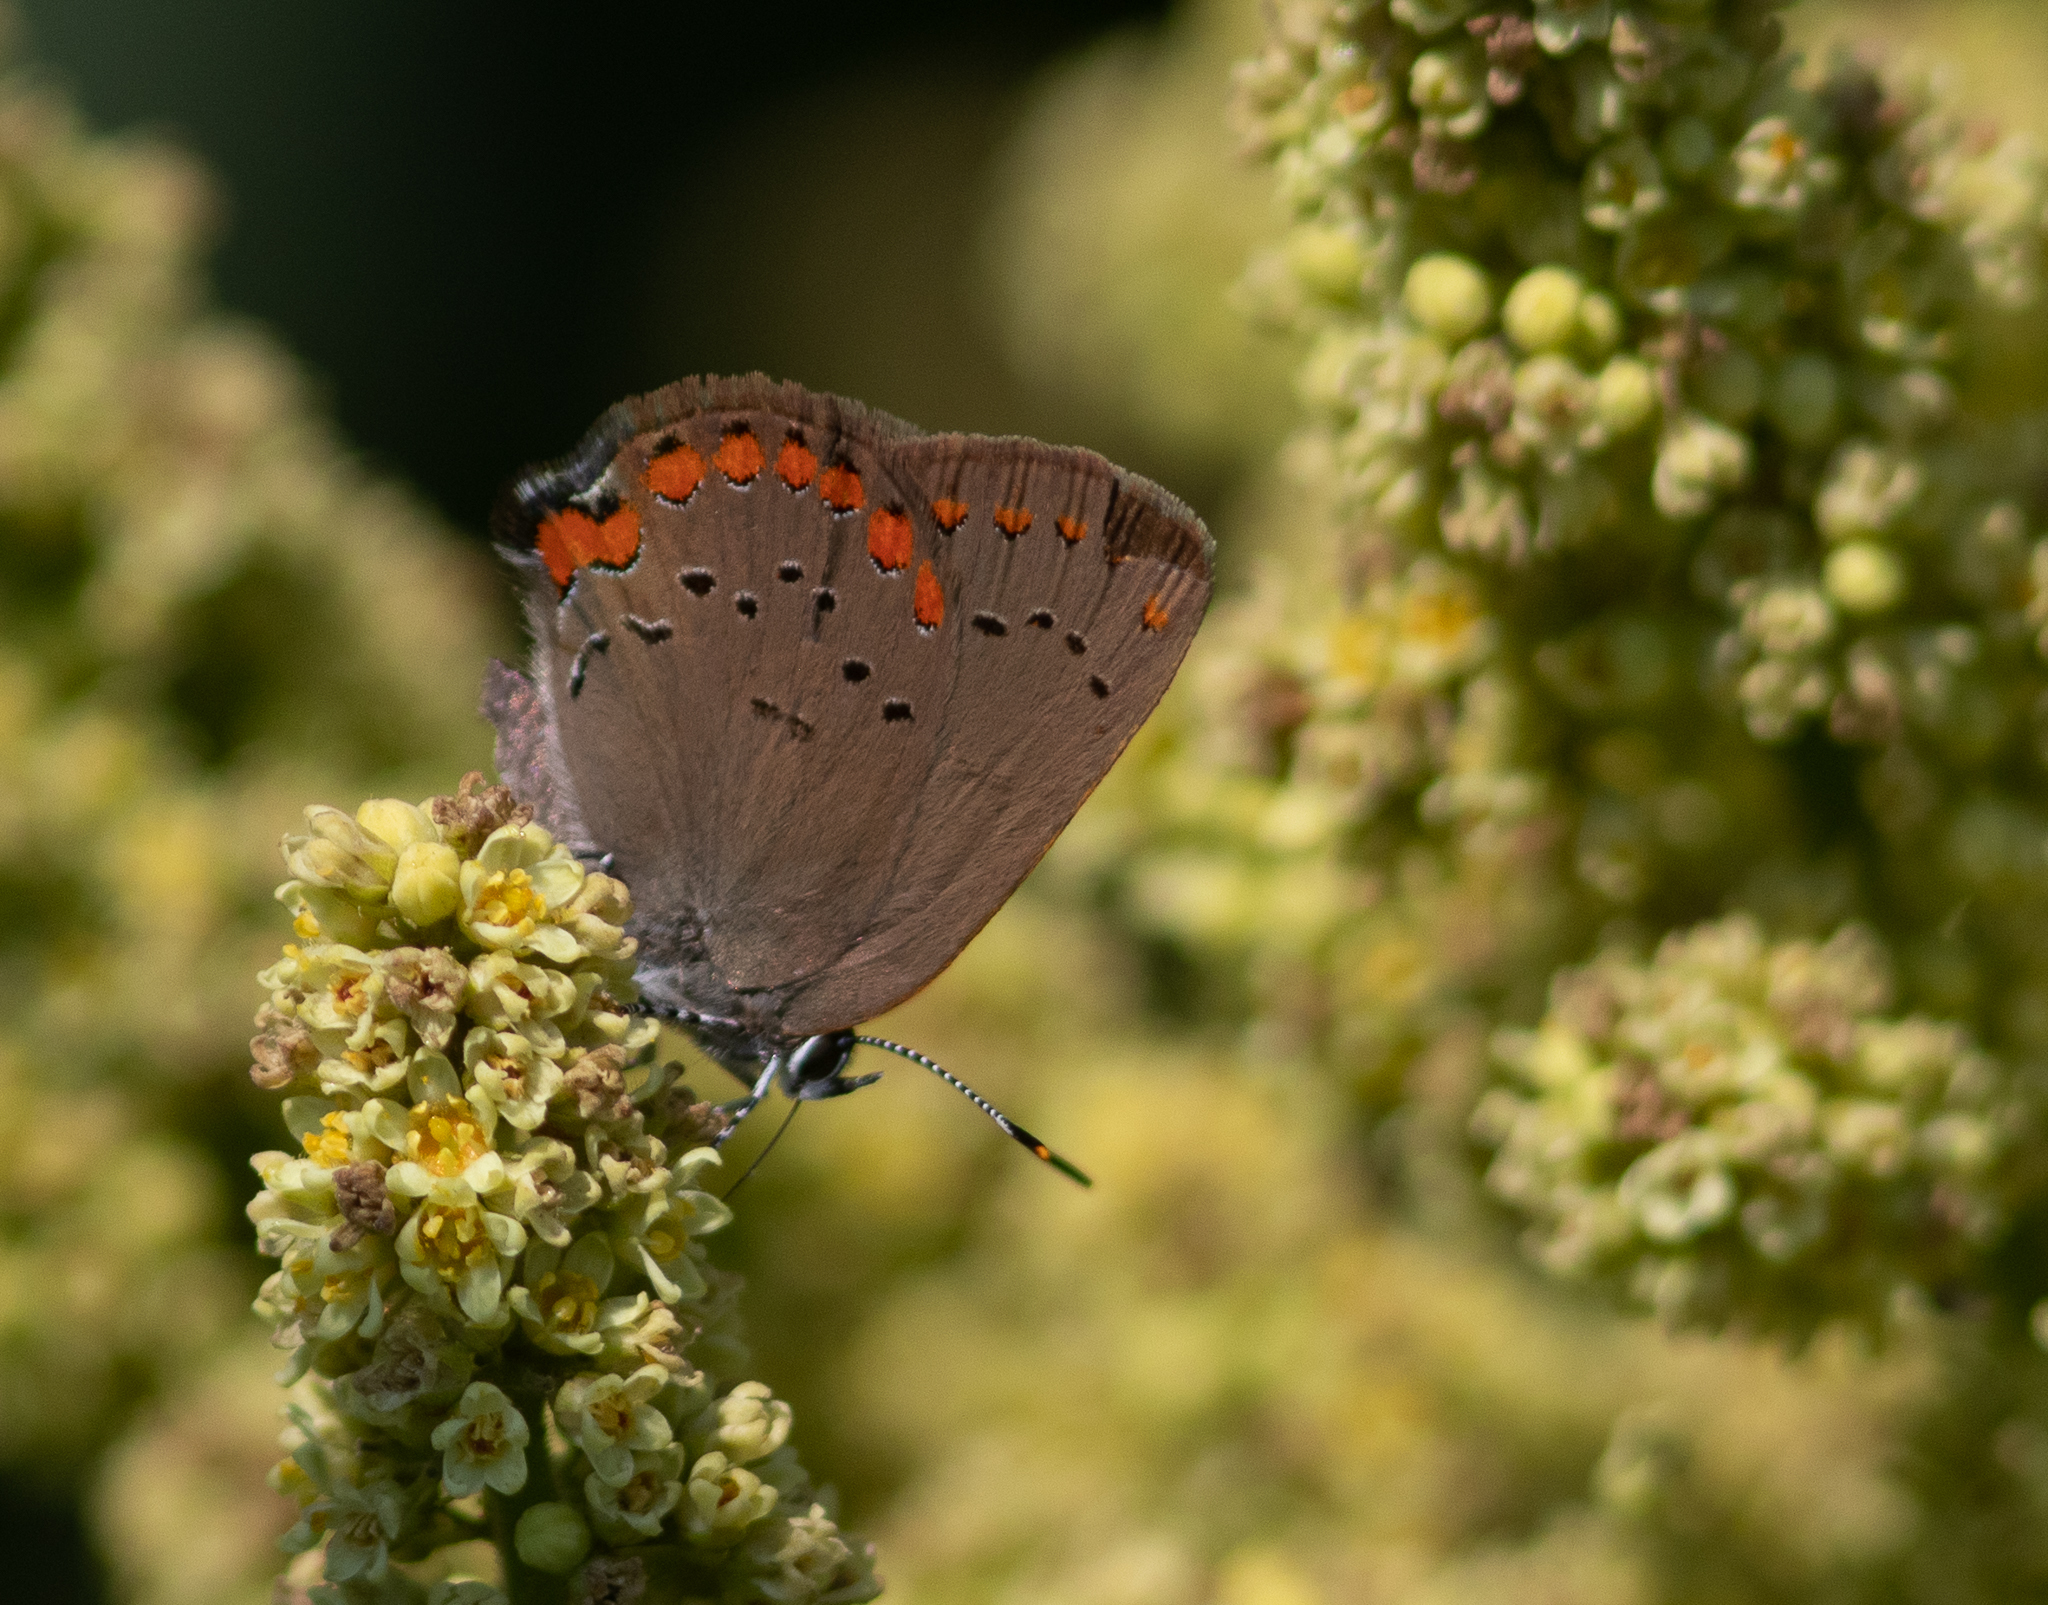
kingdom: Animalia
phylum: Arthropoda
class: Insecta
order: Lepidoptera
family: Lycaenidae
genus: Harkenclenus
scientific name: Harkenclenus titus
